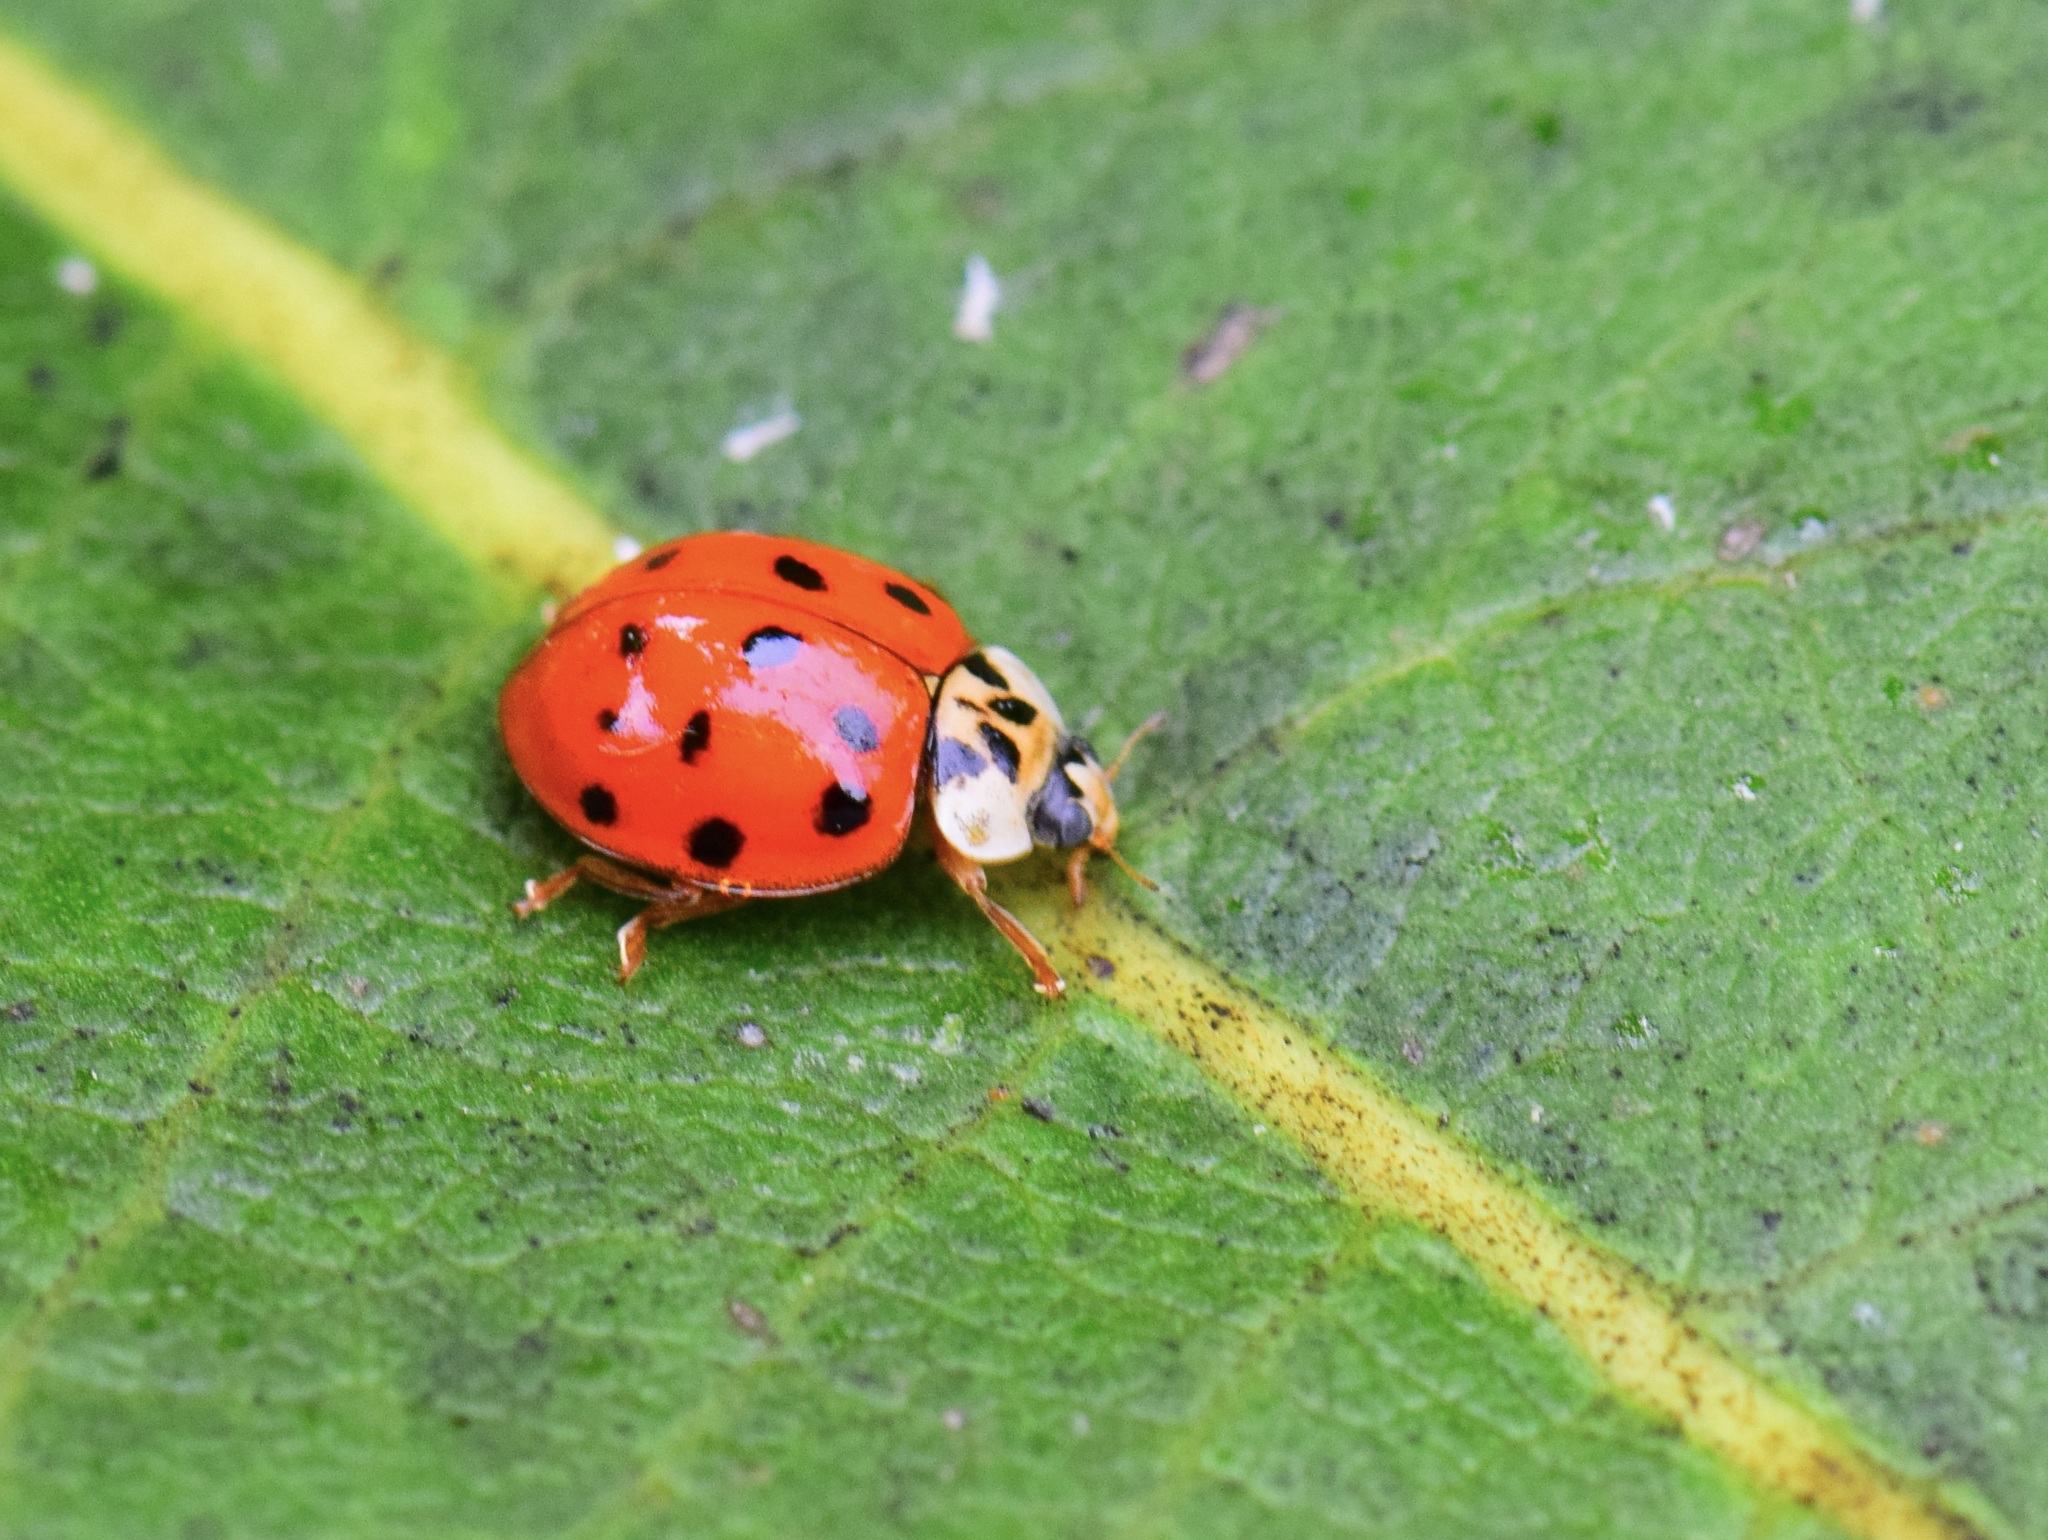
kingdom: Animalia
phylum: Arthropoda
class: Insecta
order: Coleoptera
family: Coccinellidae
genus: Harmonia
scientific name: Harmonia axyridis
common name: Harlequin ladybird
